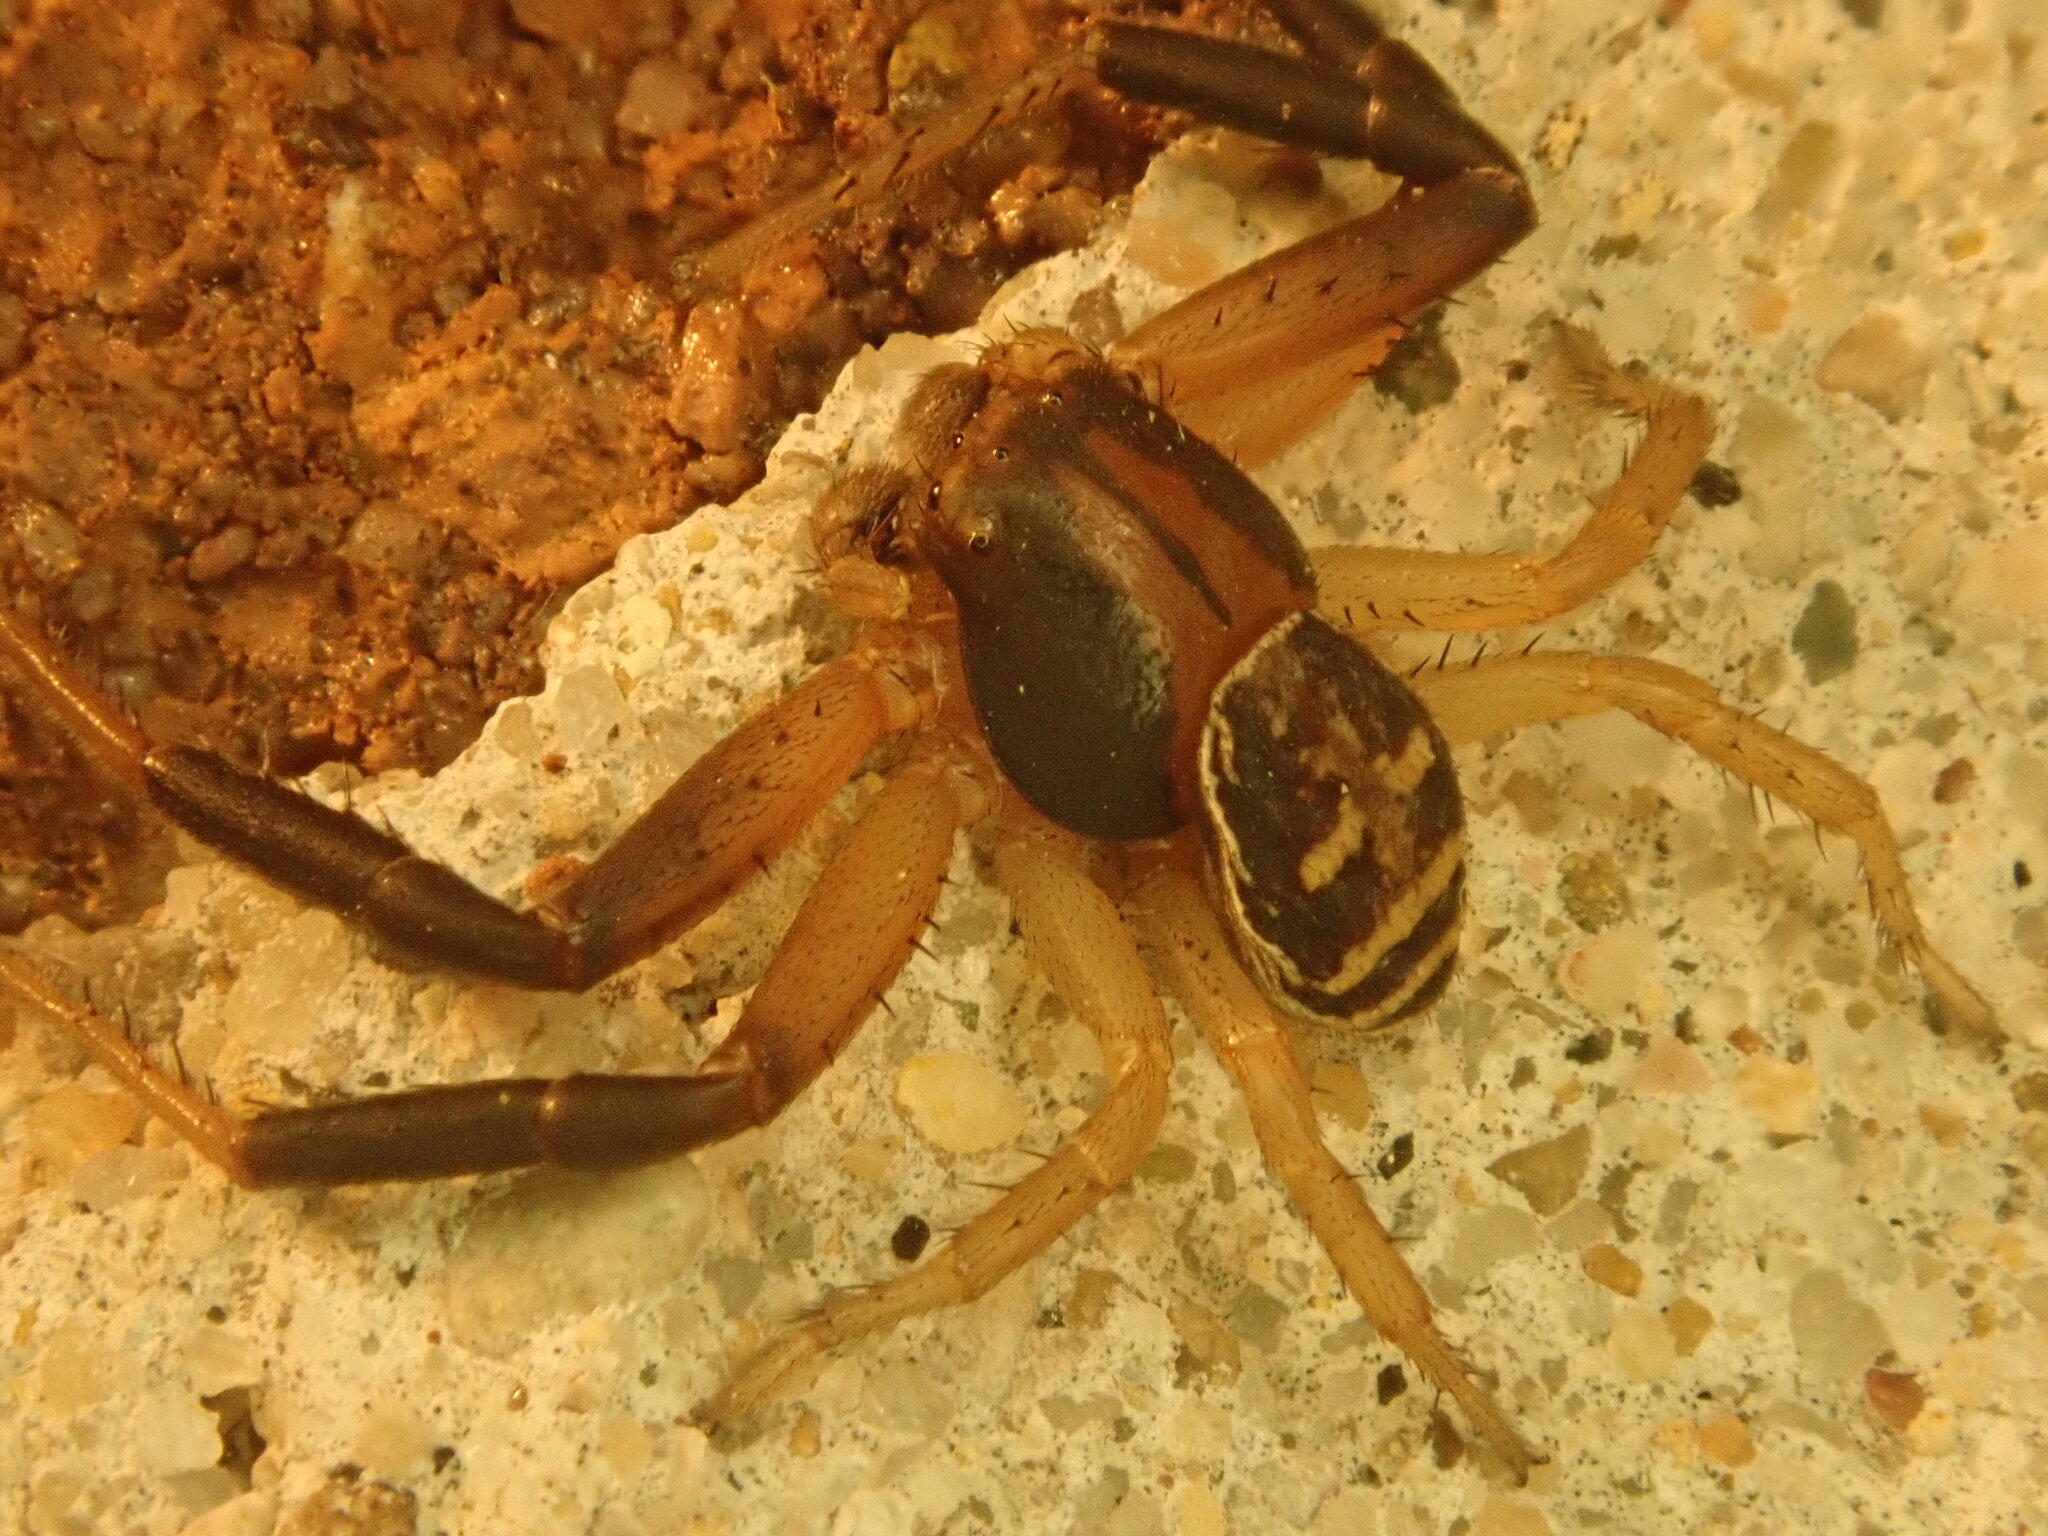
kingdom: Animalia
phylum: Arthropoda
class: Arachnida
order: Araneae
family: Thomisidae
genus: Xysticus
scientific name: Xysticus texanus
